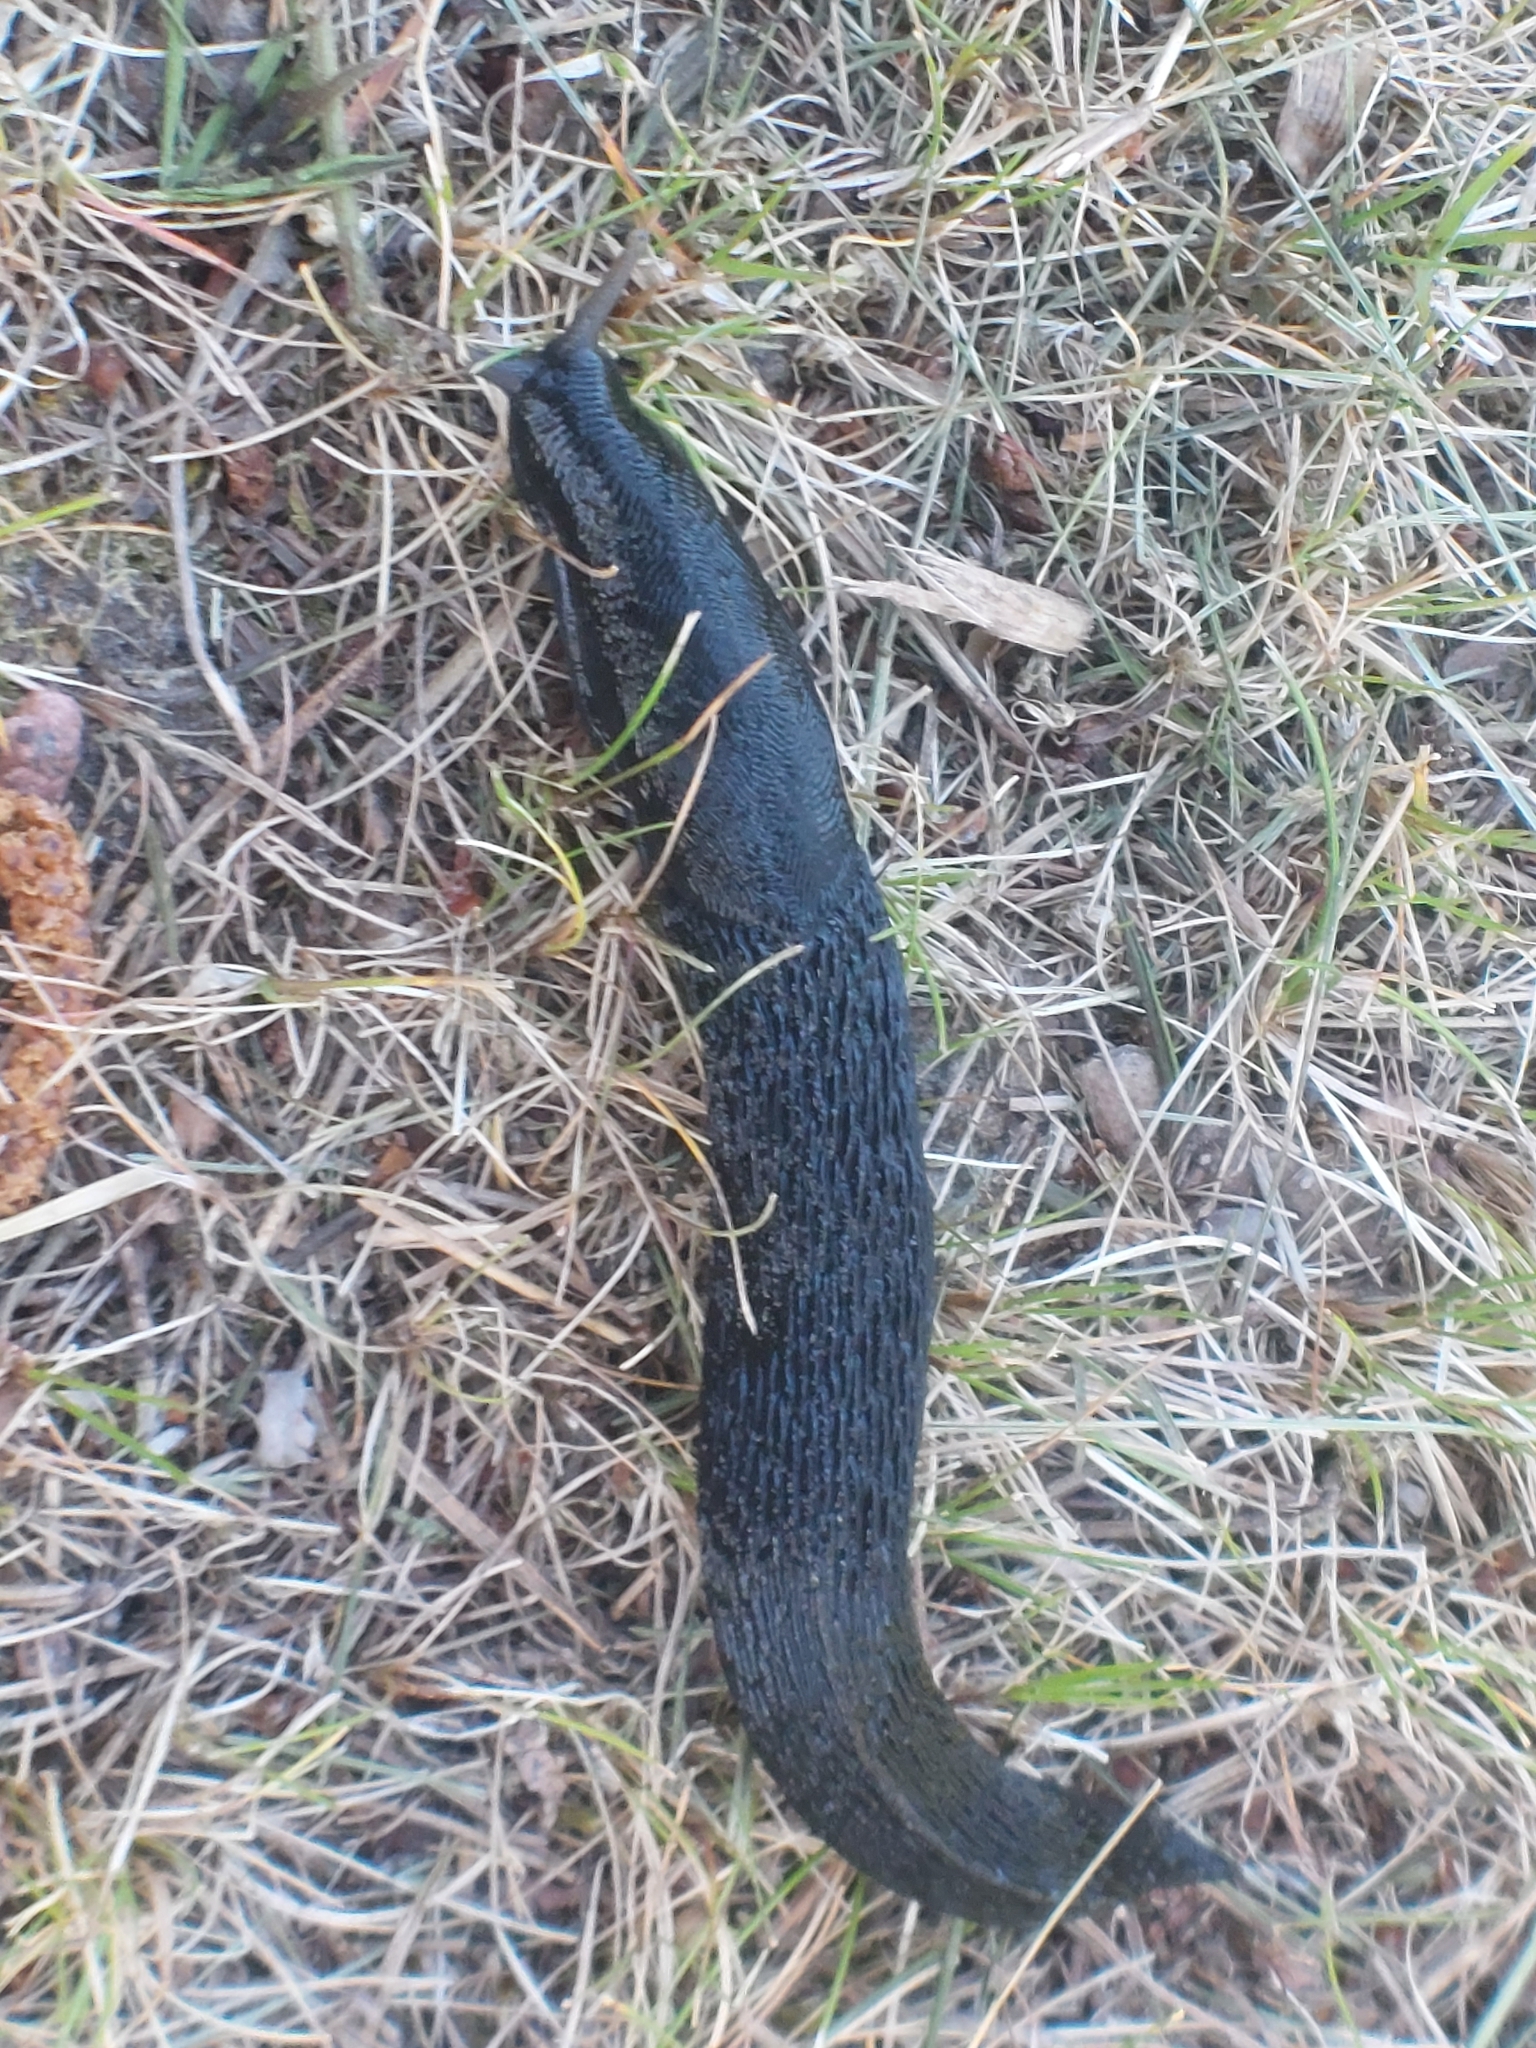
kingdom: Animalia
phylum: Mollusca
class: Gastropoda
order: Stylommatophora
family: Limacidae
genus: Limax
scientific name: Limax cinereoniger
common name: Ash-black slug
